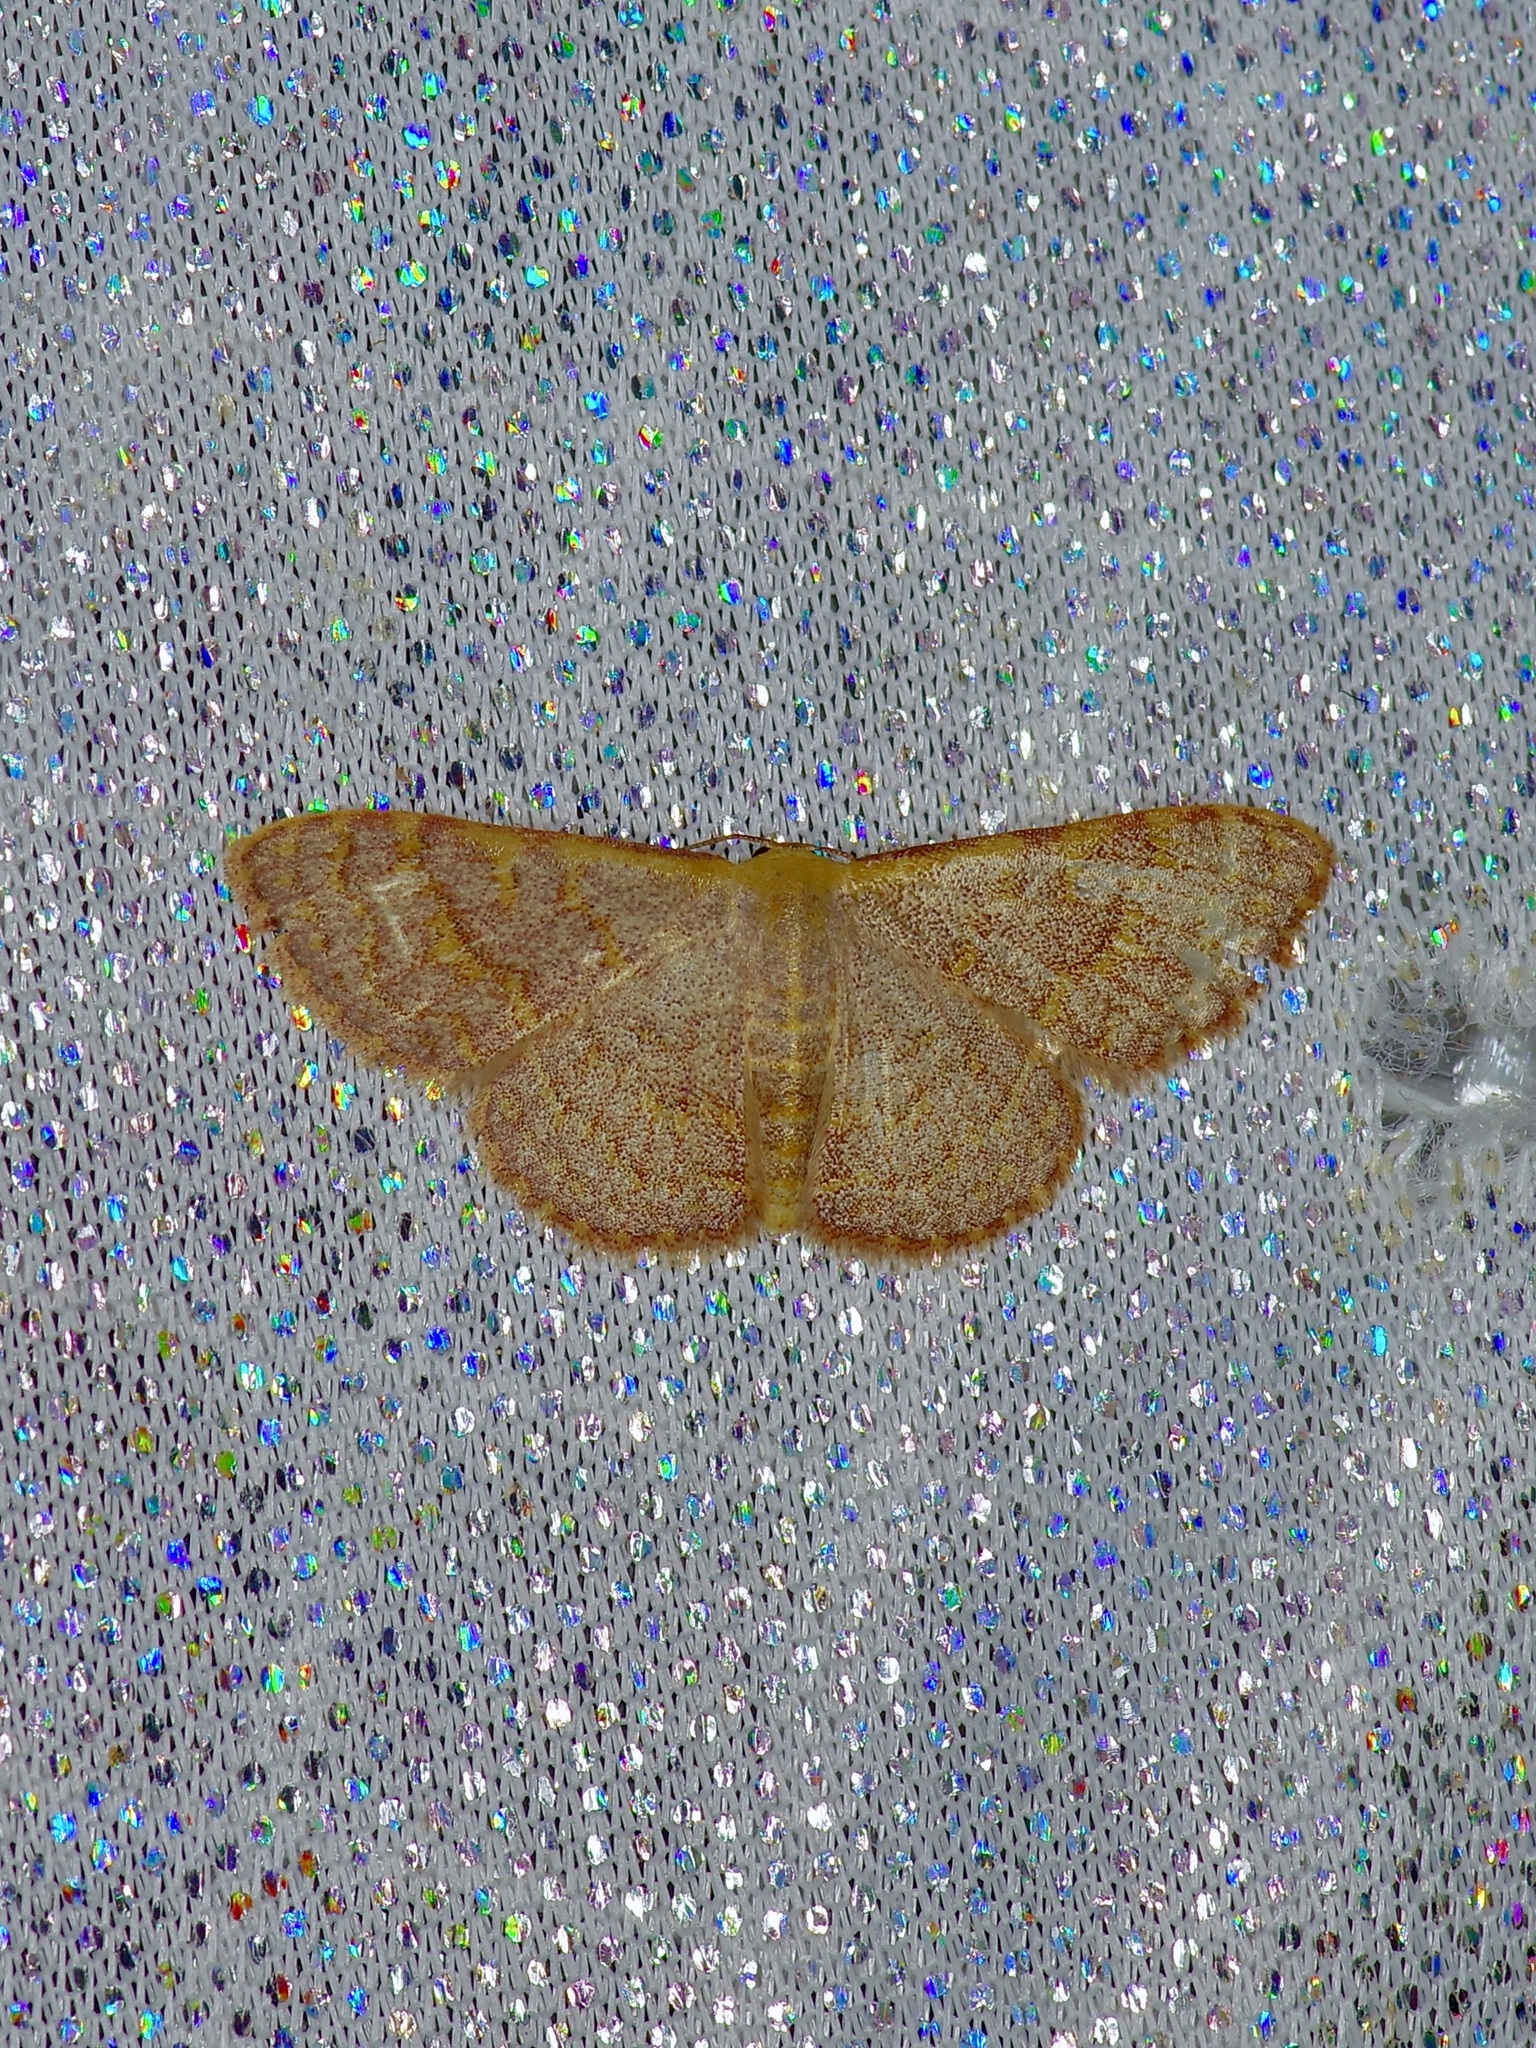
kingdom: Animalia
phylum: Arthropoda
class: Insecta
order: Lepidoptera
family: Geometridae
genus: Leptostales
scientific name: Leptostales pannaria
